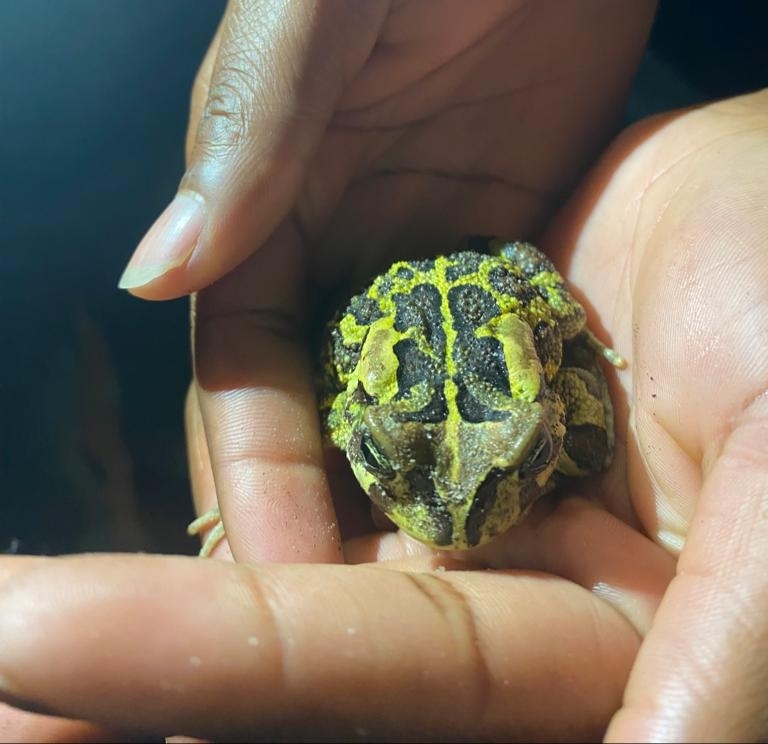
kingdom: Animalia
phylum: Chordata
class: Amphibia
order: Anura
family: Bufonidae
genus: Sclerophrys
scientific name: Sclerophrys pantherina
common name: Panther toad
